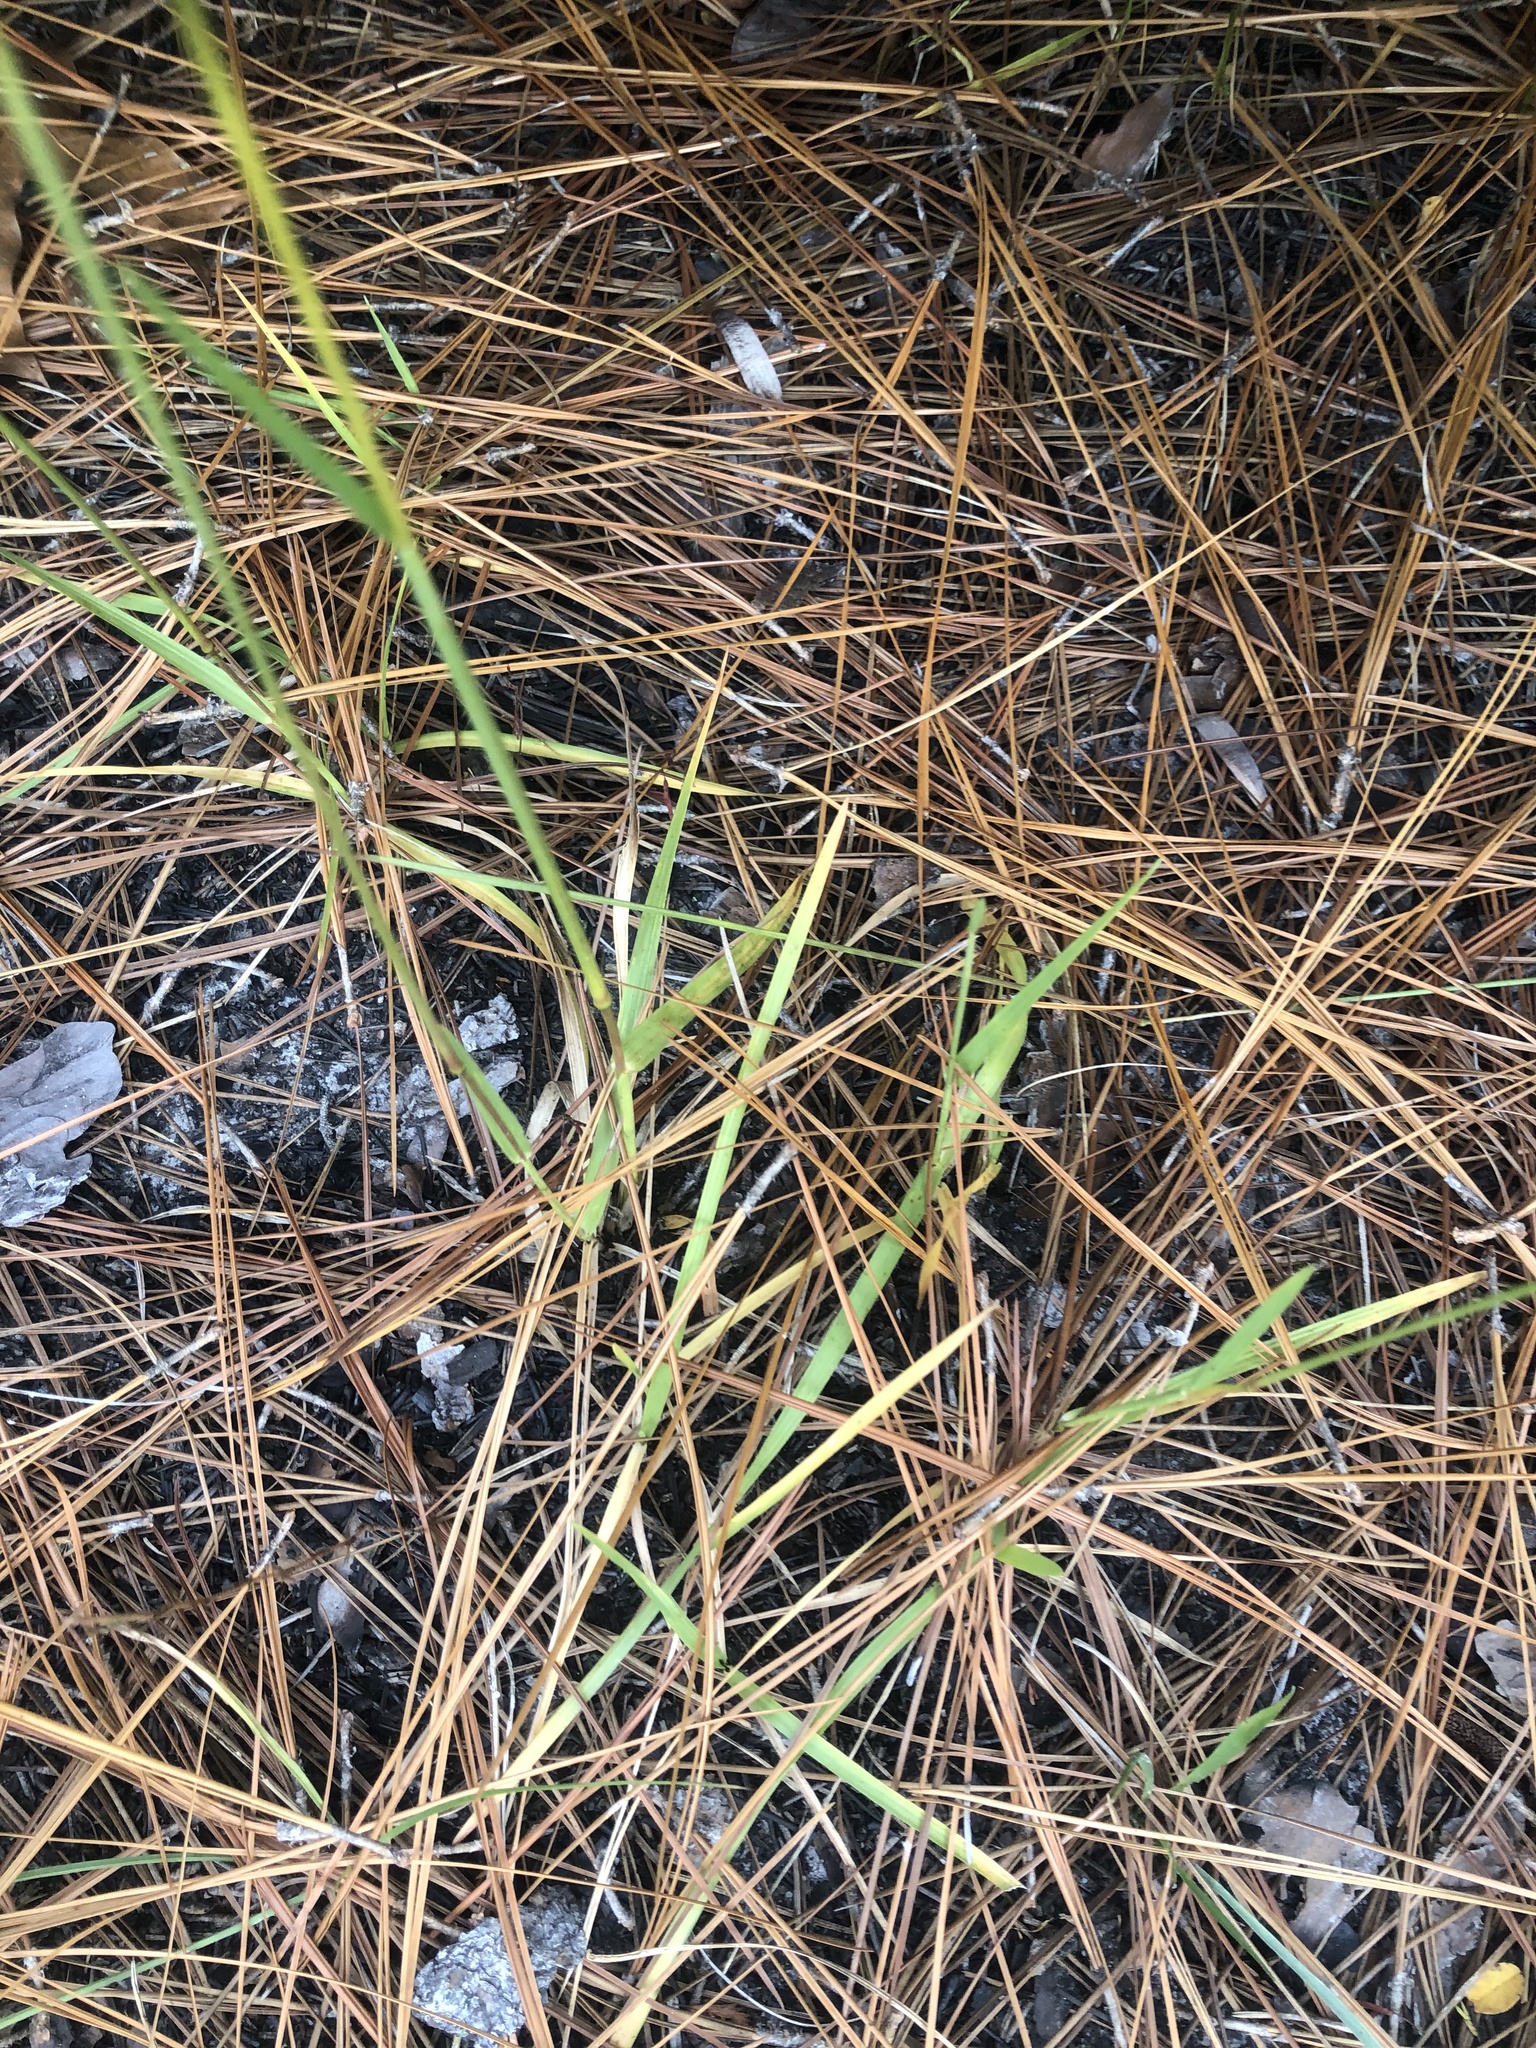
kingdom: Plantae
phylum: Tracheophyta
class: Liliopsida
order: Poales
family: Poaceae
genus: Anthenantia
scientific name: Anthenantia villosa
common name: Green silkyscale
